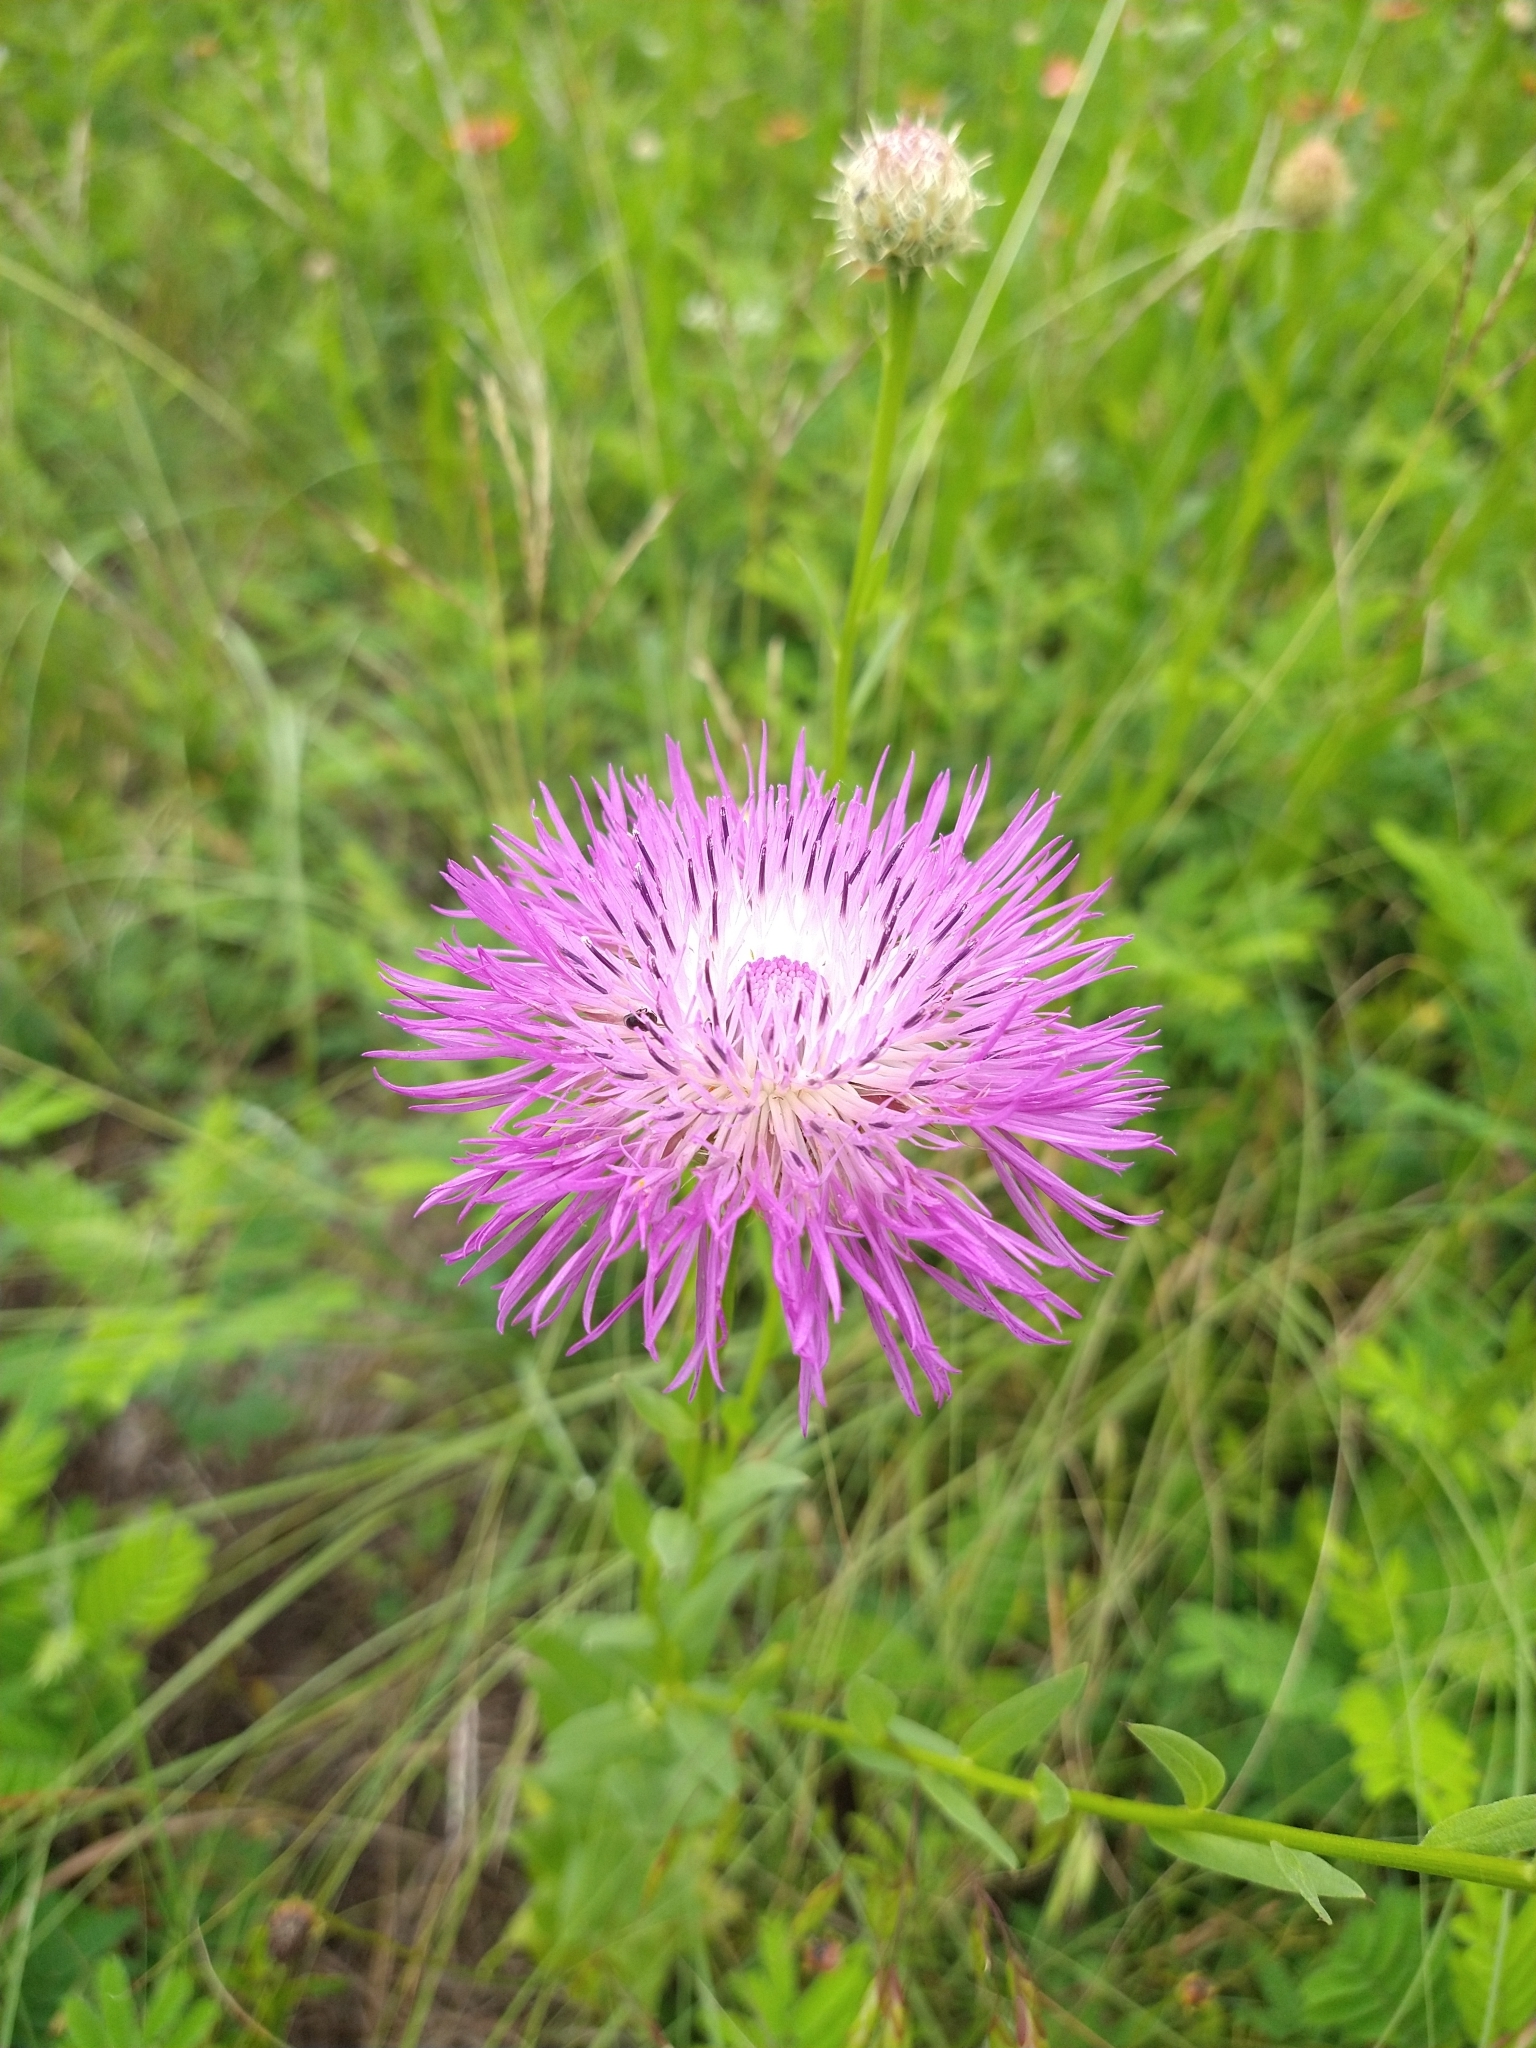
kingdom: Plantae
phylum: Tracheophyta
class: Magnoliopsida
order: Asterales
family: Asteraceae
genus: Plectocephalus
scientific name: Plectocephalus americanus
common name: American basket-flower
